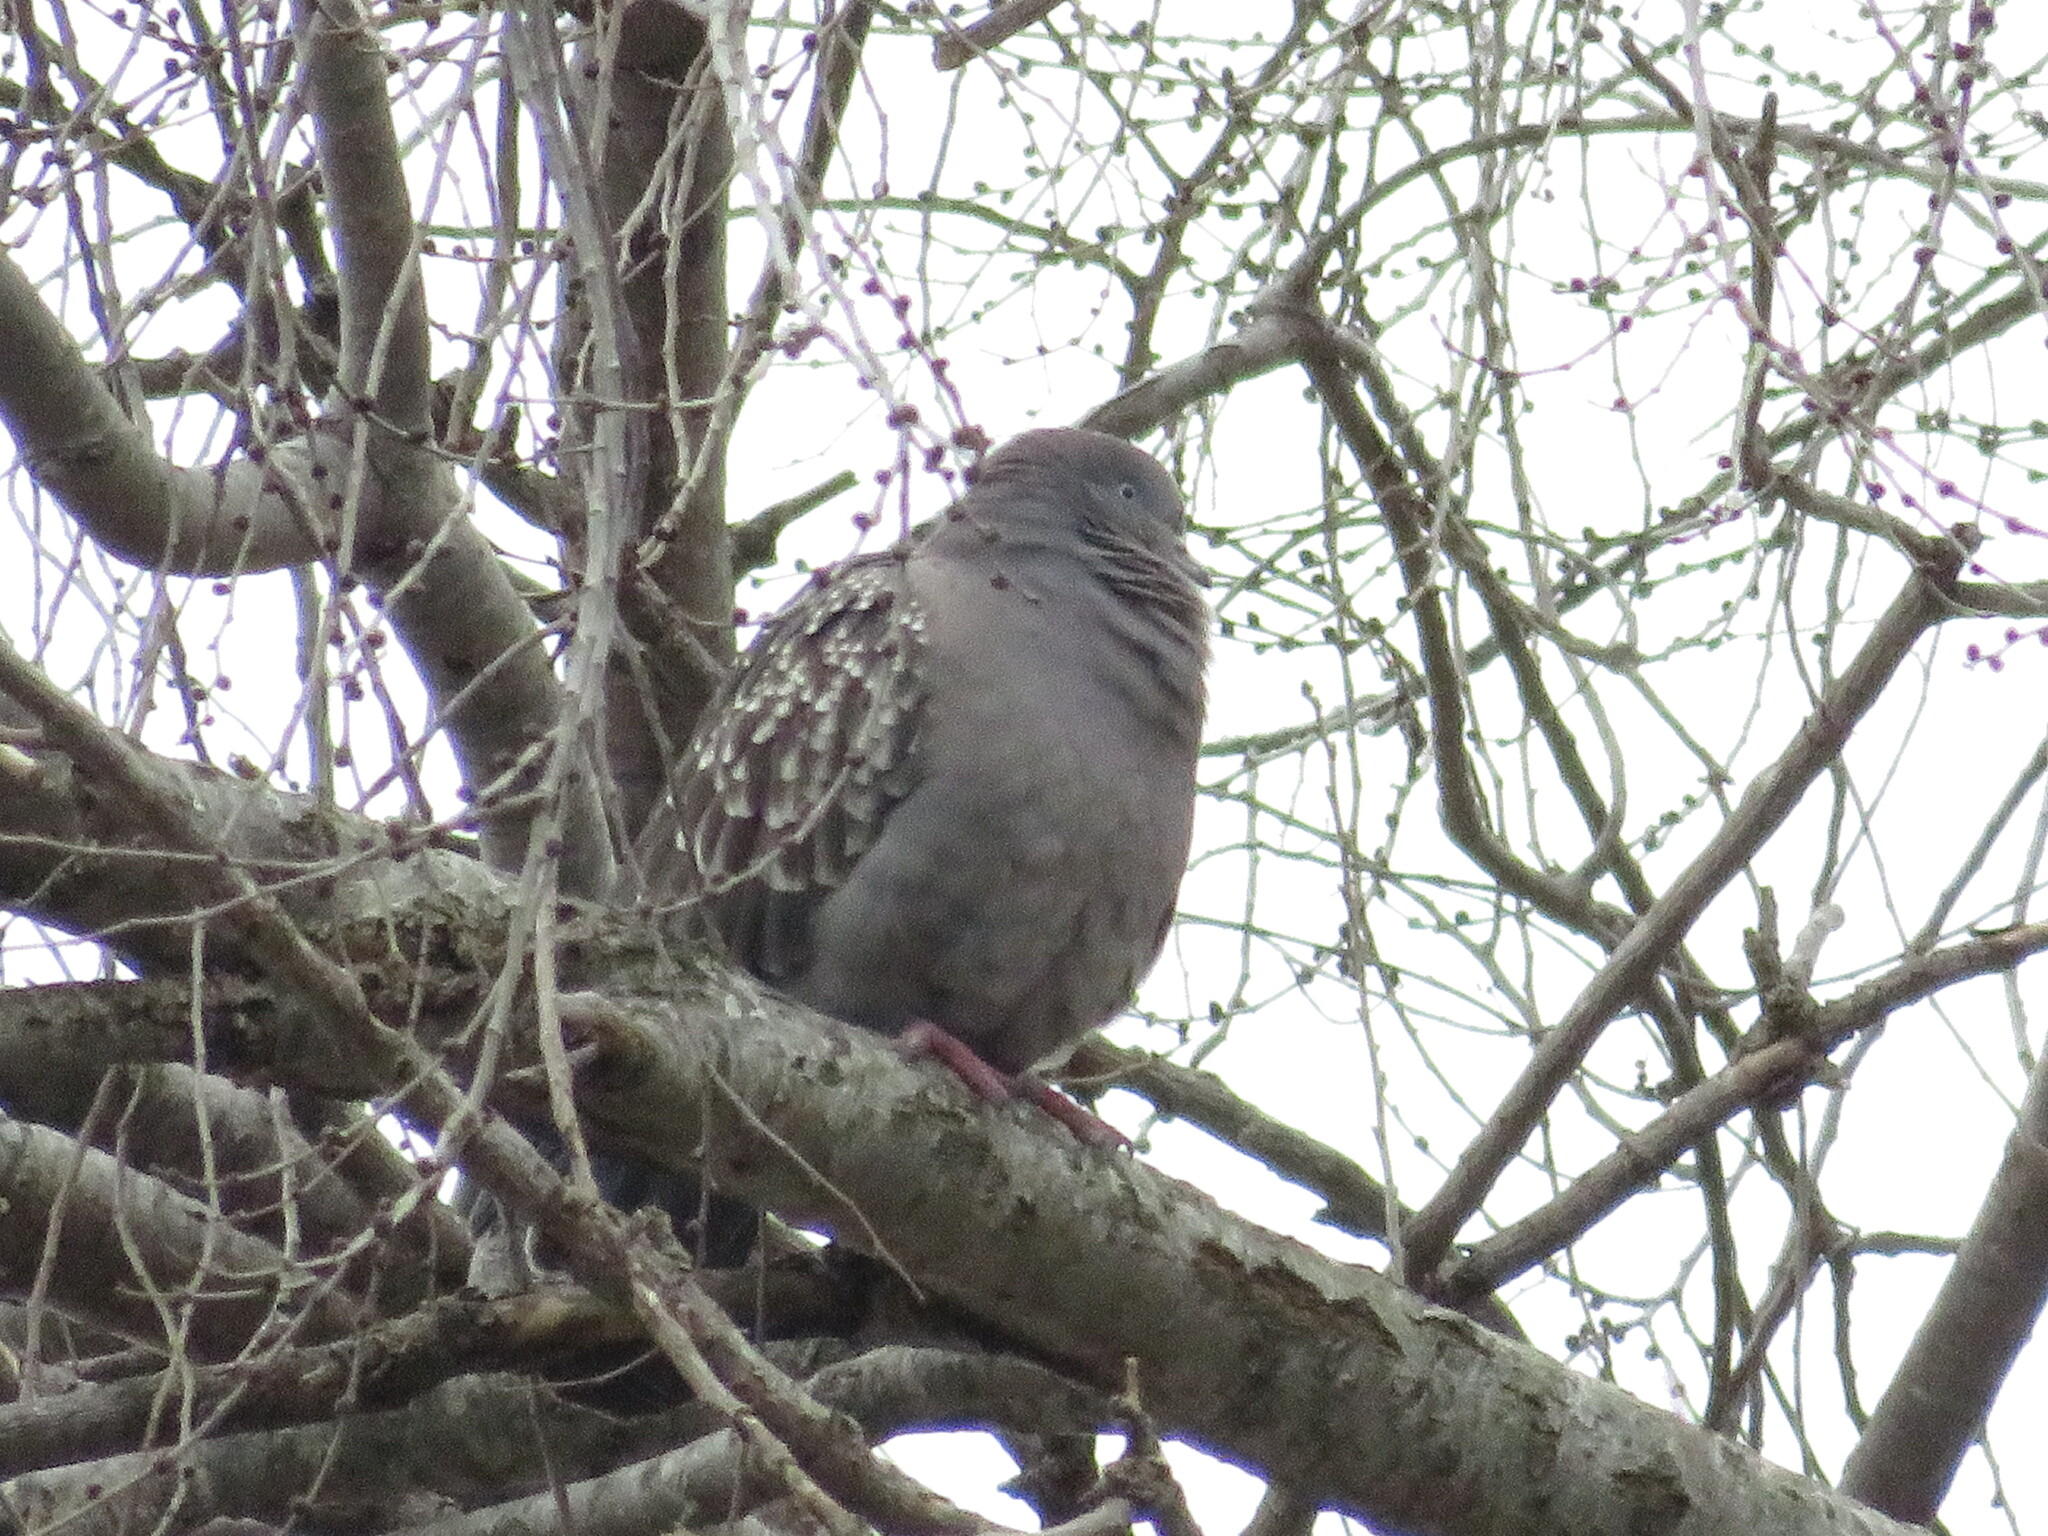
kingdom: Animalia
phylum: Chordata
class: Aves
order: Columbiformes
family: Columbidae
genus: Patagioenas
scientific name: Patagioenas maculosa
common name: Spot-winged pigeon
